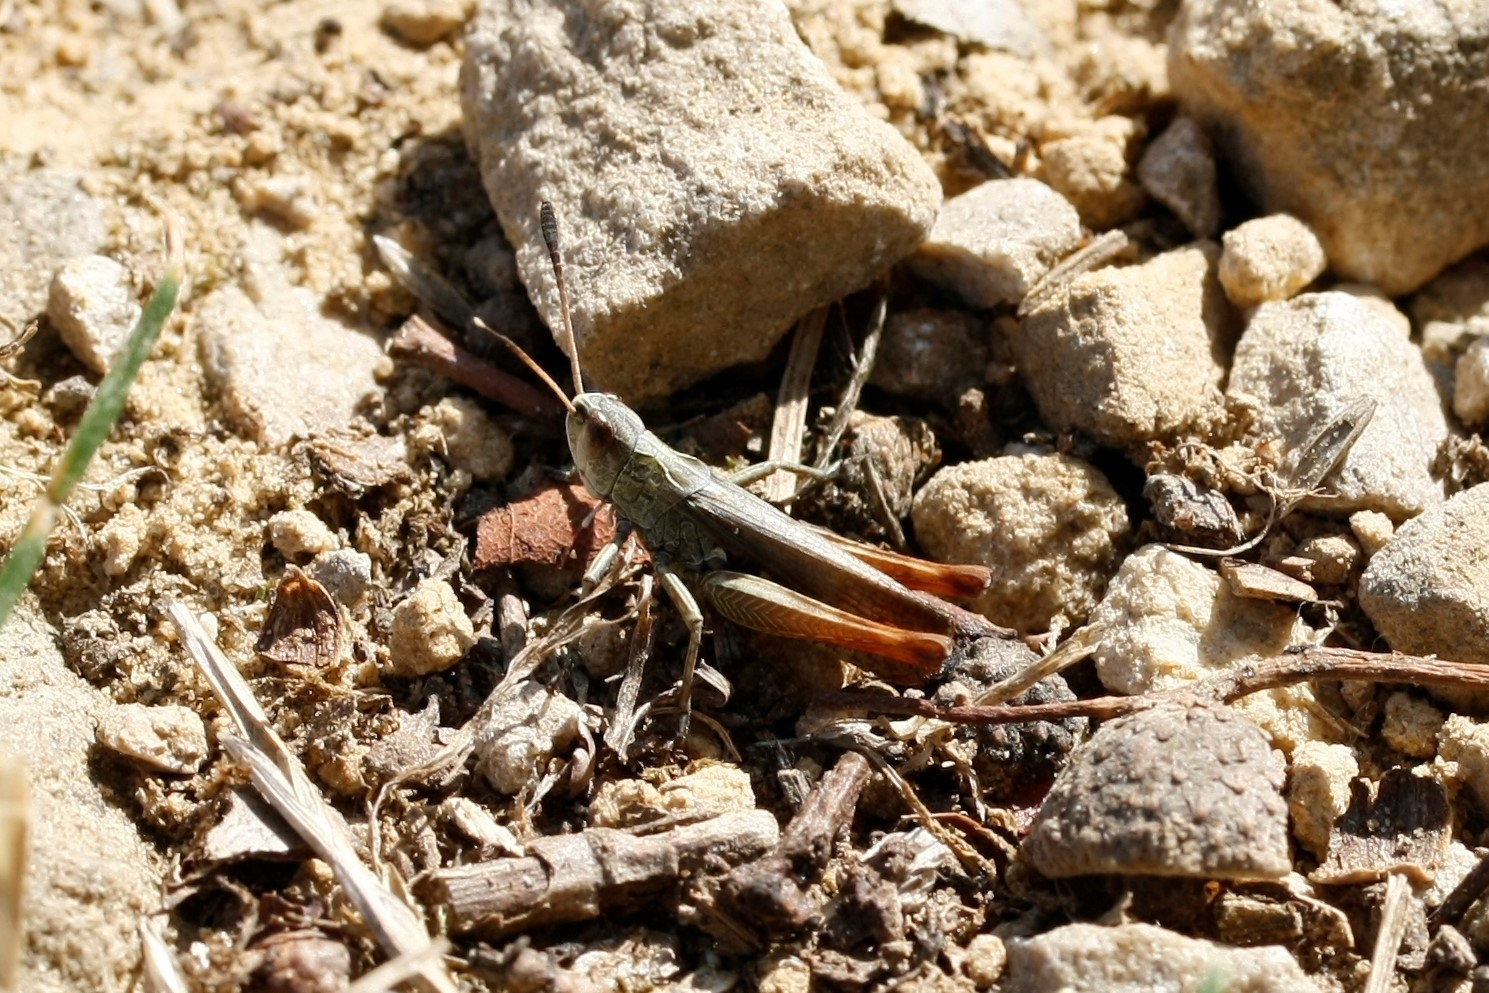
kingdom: Animalia
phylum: Arthropoda
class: Insecta
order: Orthoptera
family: Acrididae
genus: Gomphocerippus
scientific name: Gomphocerippus rufus
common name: Rufous grasshopper
